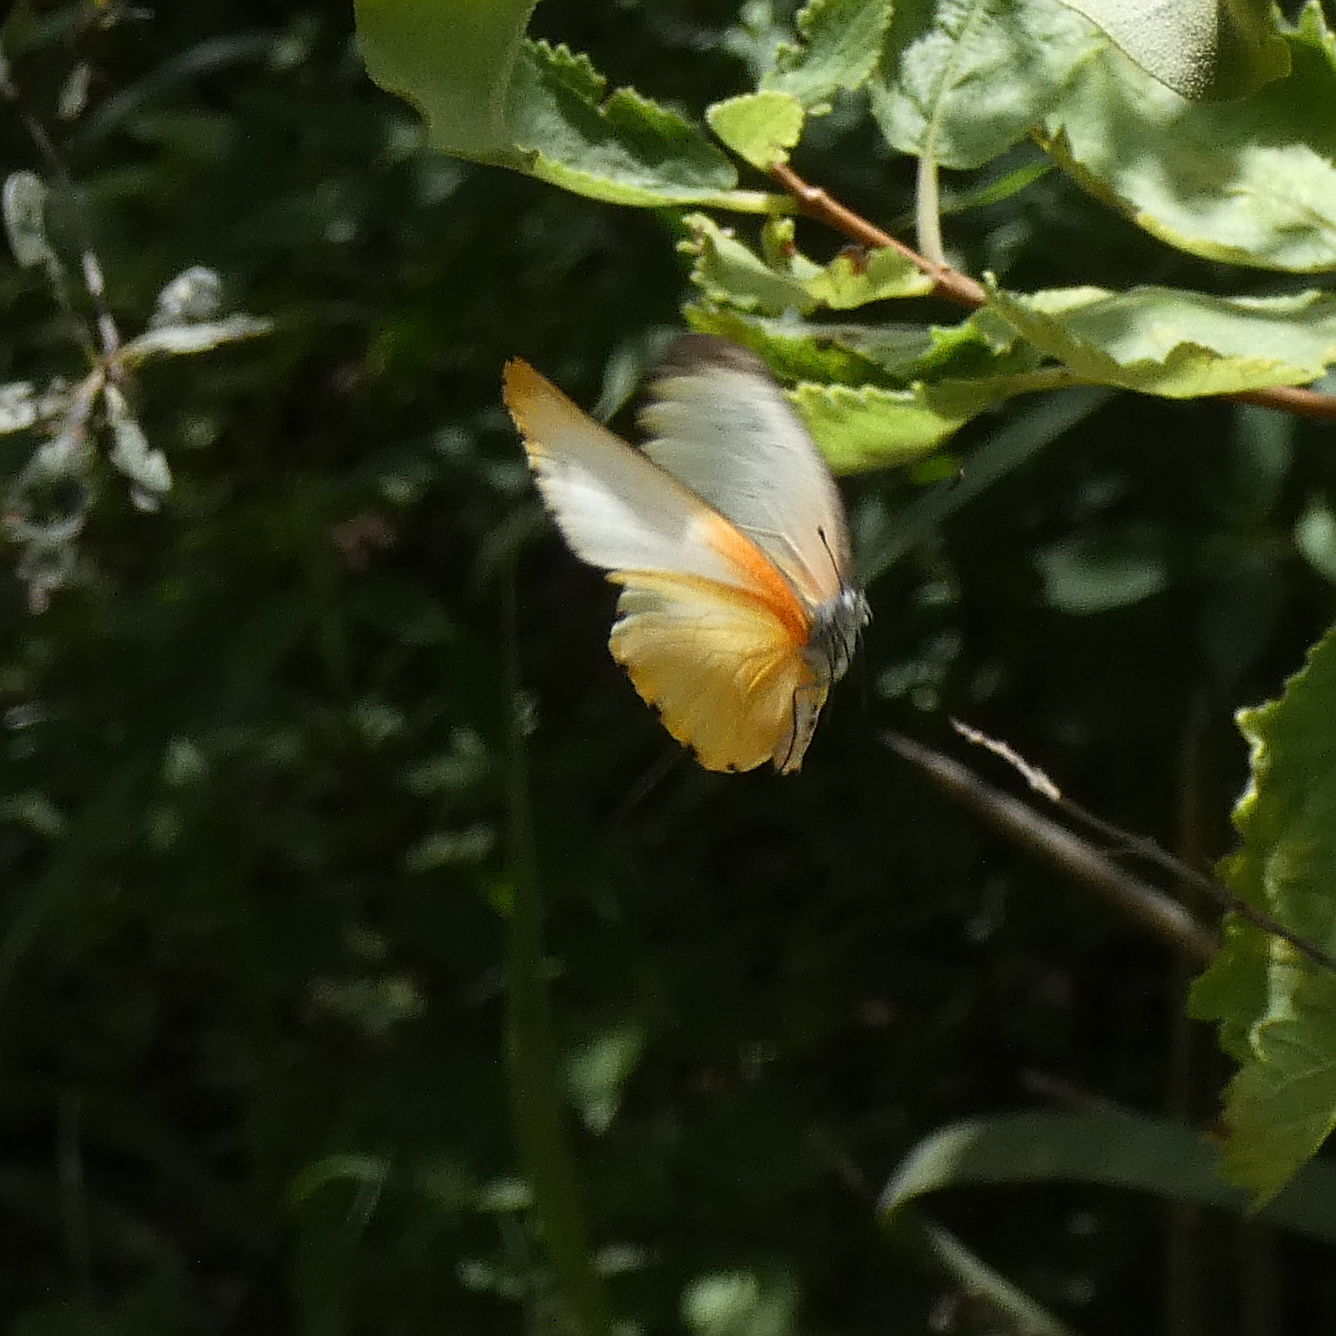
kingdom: Animalia
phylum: Arthropoda
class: Insecta
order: Lepidoptera
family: Pieridae
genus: Mylothris
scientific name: Mylothris agathina
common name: Eastern dotted border
